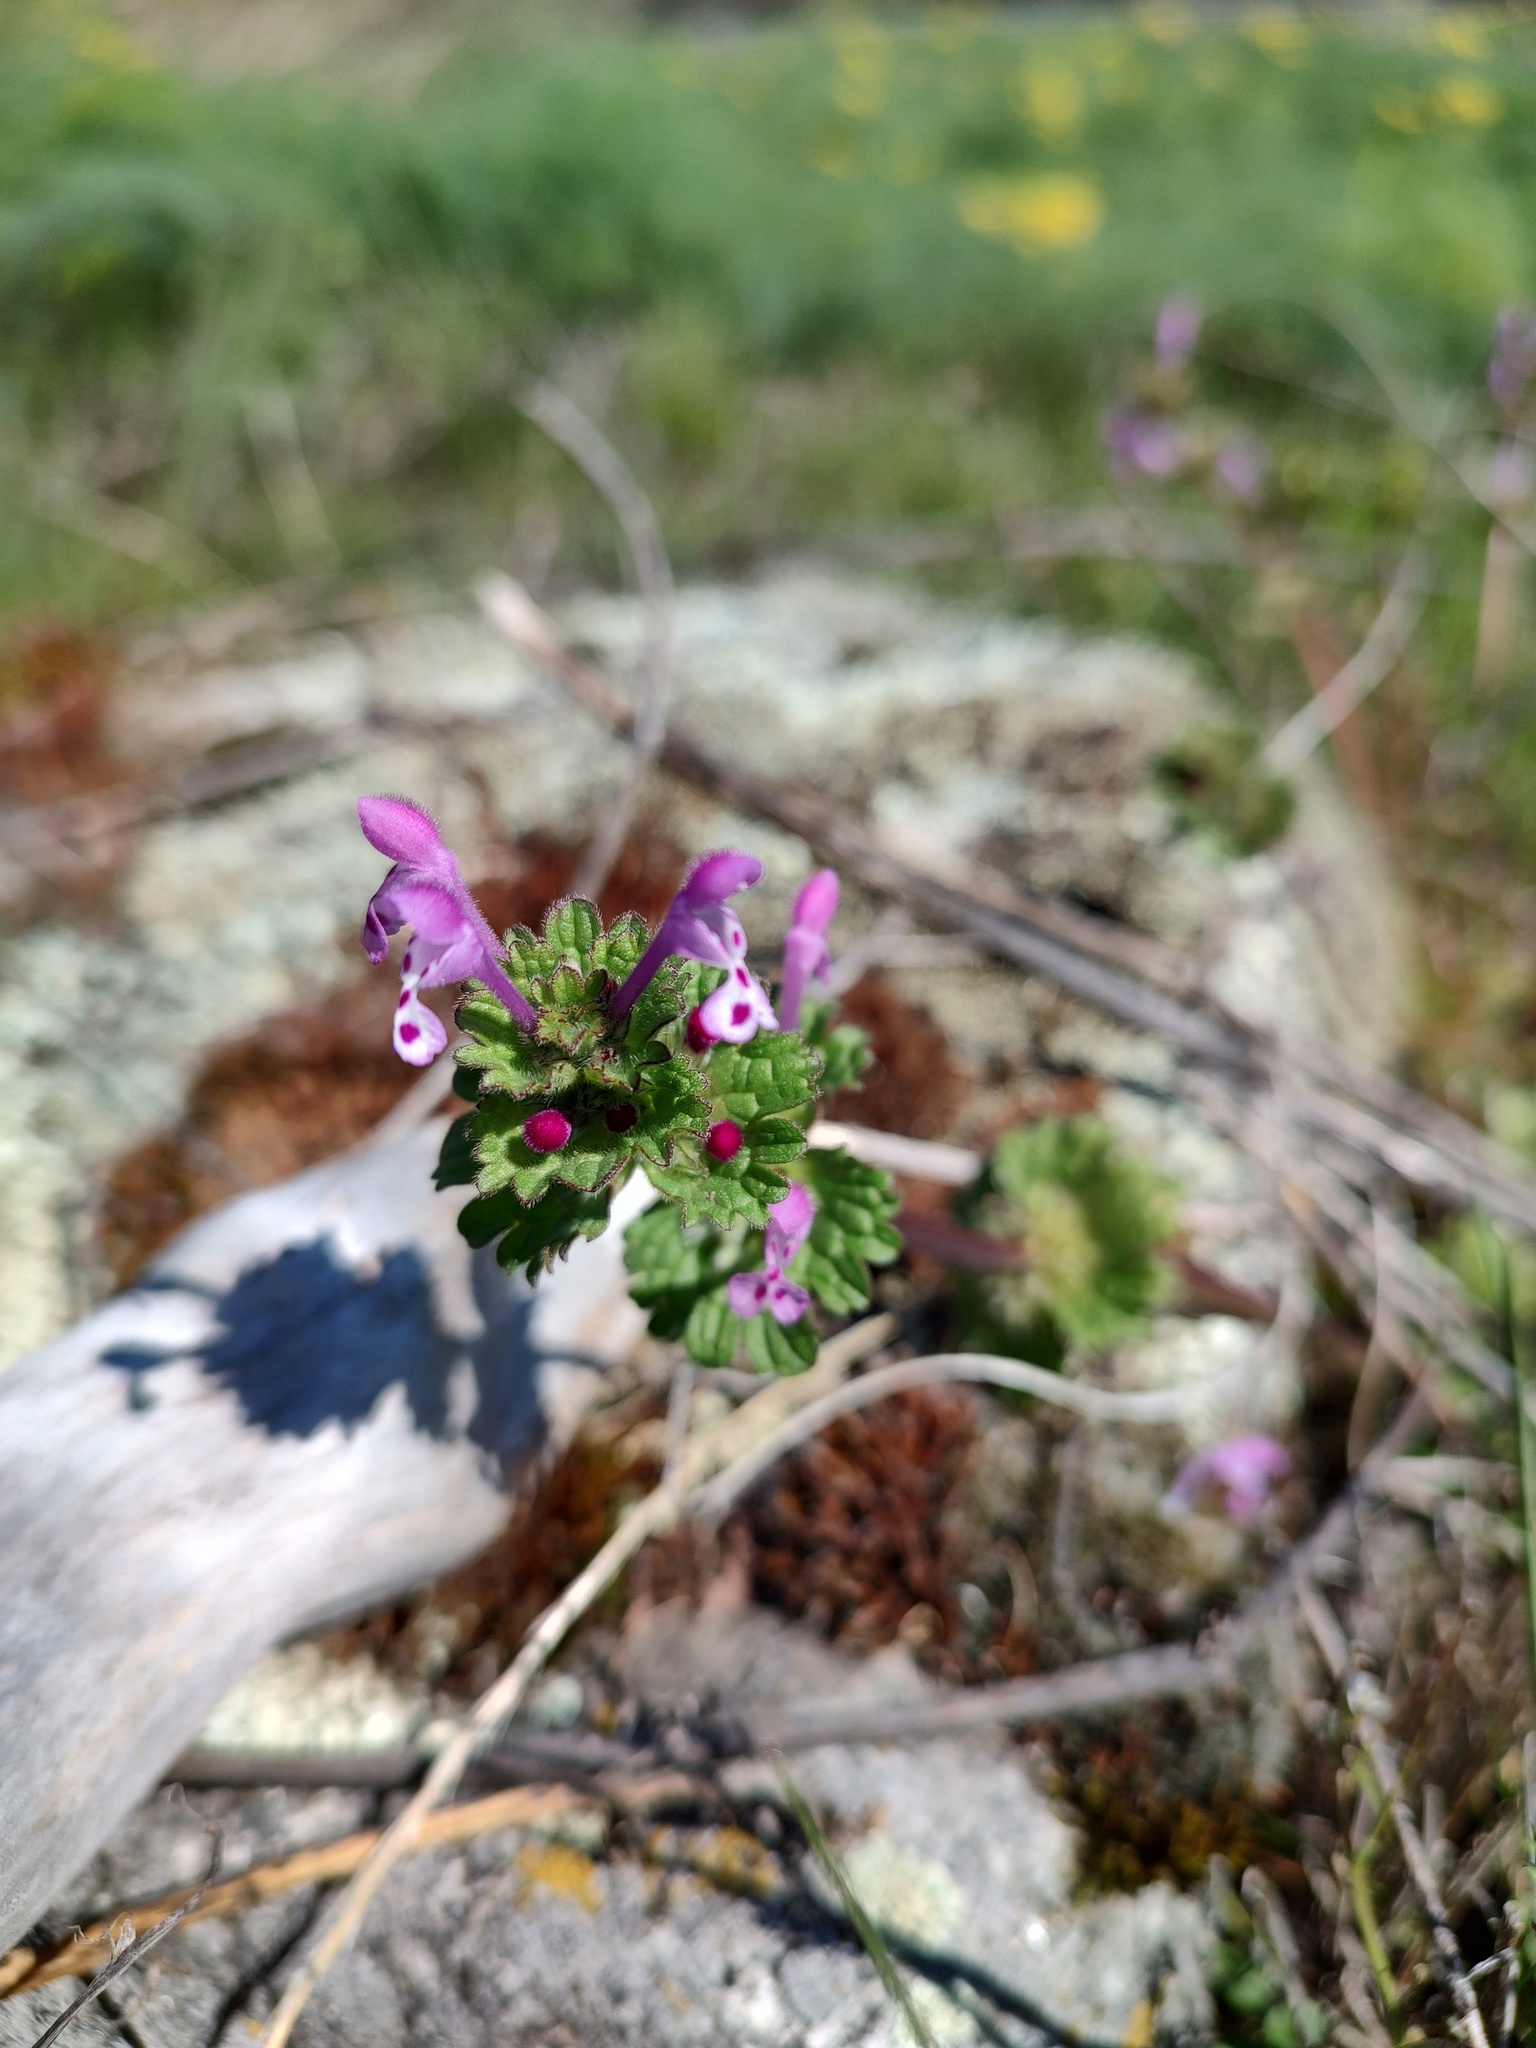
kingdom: Plantae
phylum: Tracheophyta
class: Magnoliopsida
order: Lamiales
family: Lamiaceae
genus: Lamium
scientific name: Lamium amplexicaule
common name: Henbit dead-nettle
